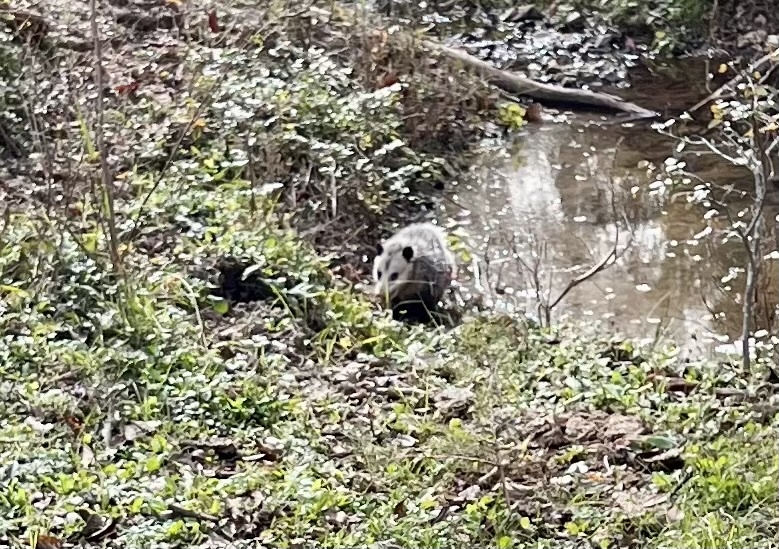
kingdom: Animalia
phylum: Chordata
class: Mammalia
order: Didelphimorphia
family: Didelphidae
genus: Didelphis
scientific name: Didelphis virginiana
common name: Virginia opossum
